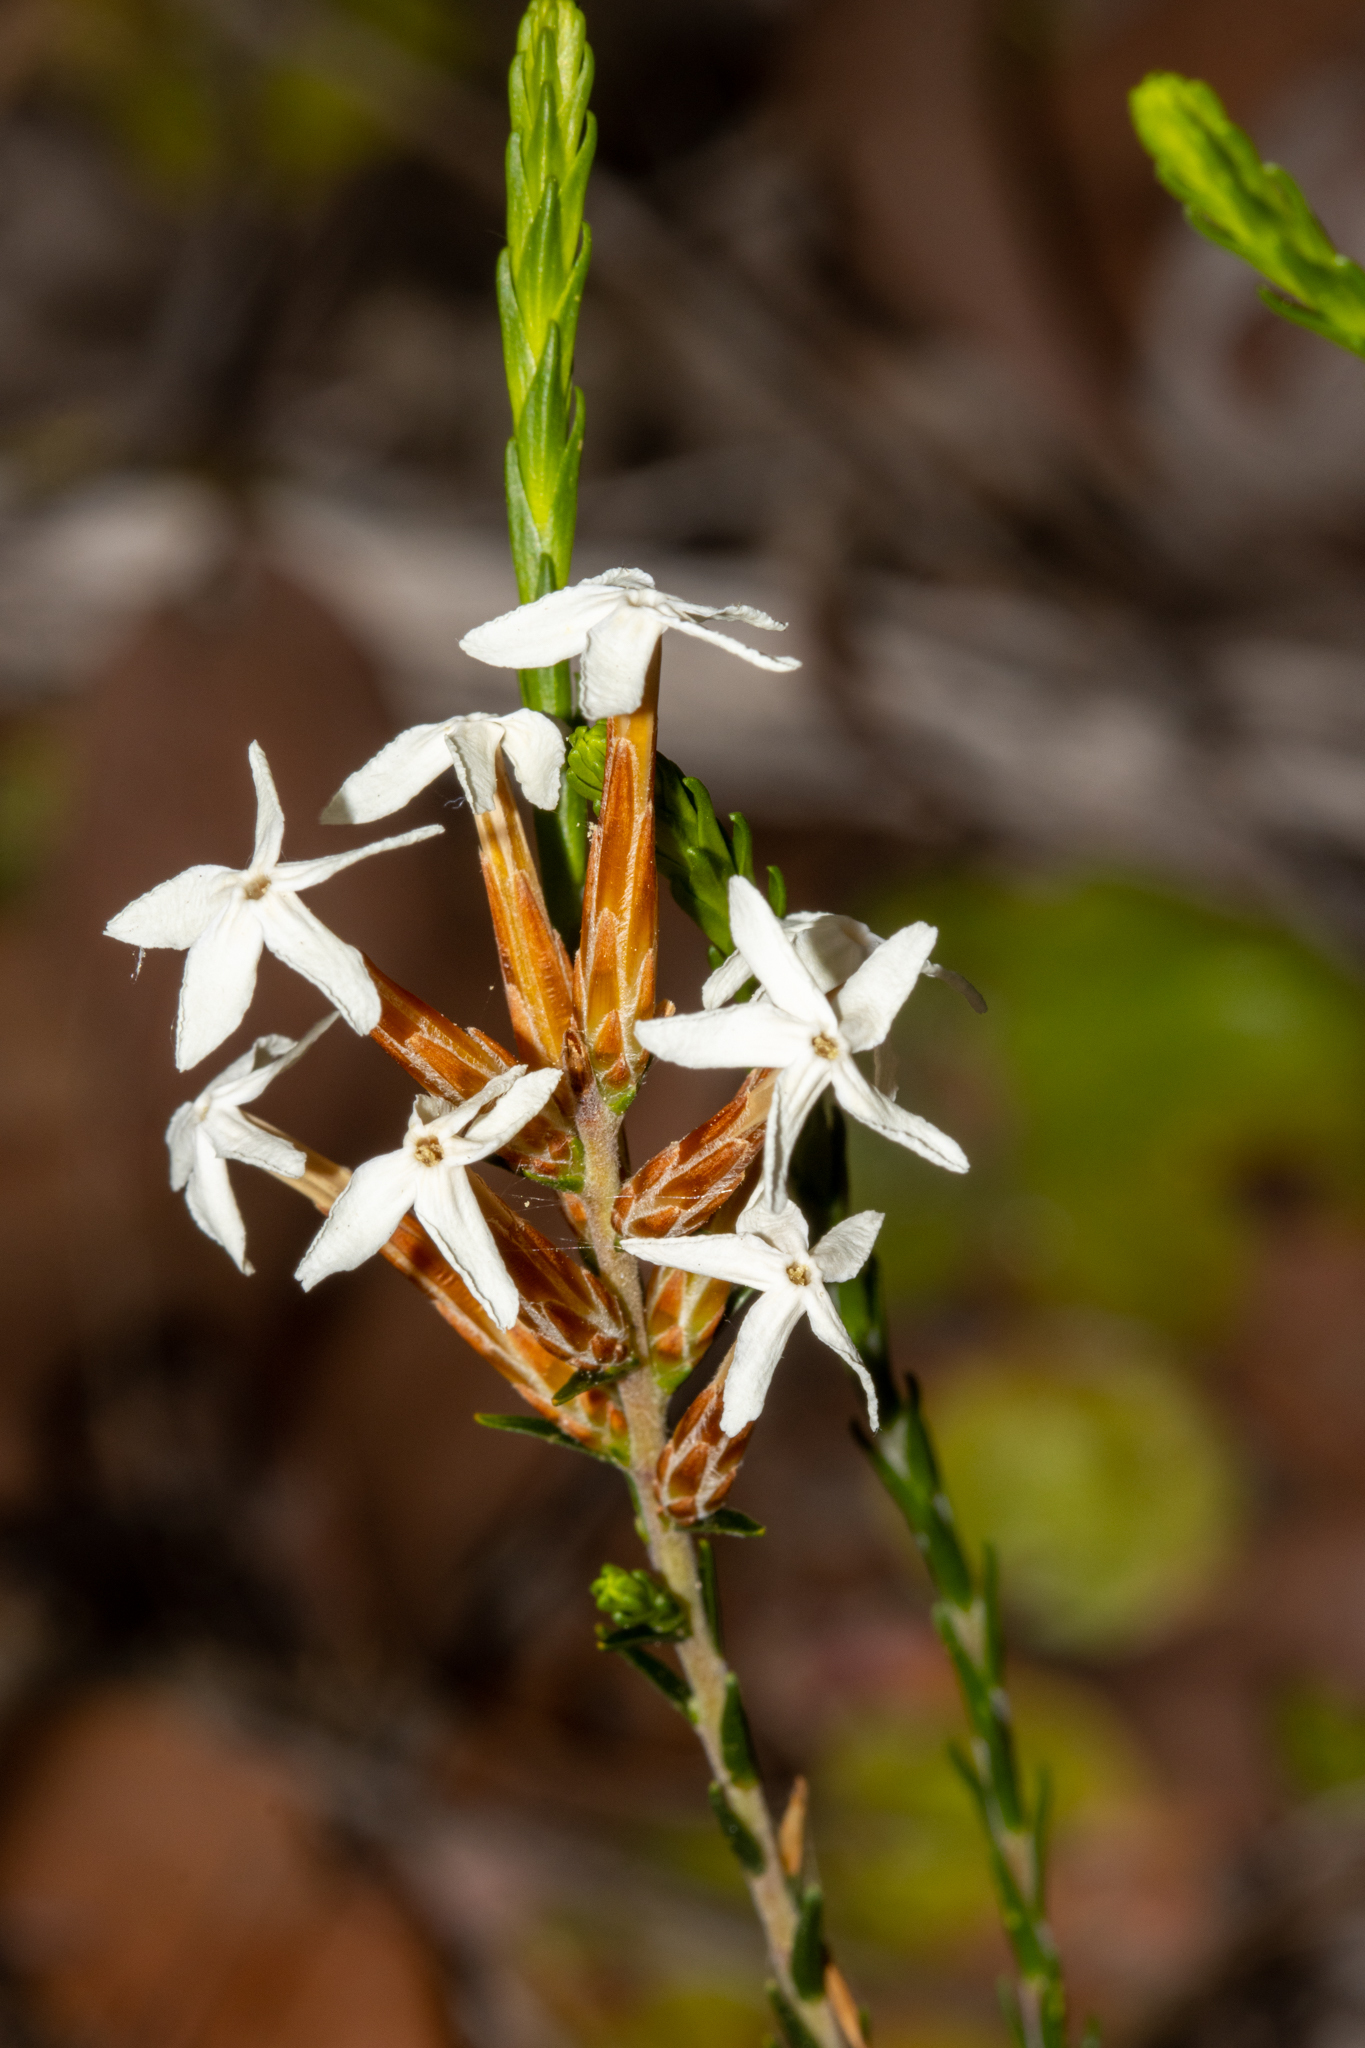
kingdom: Plantae
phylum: Tracheophyta
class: Magnoliopsida
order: Ericales
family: Ericaceae
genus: Lysinema
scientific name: Lysinema pentapetalum
